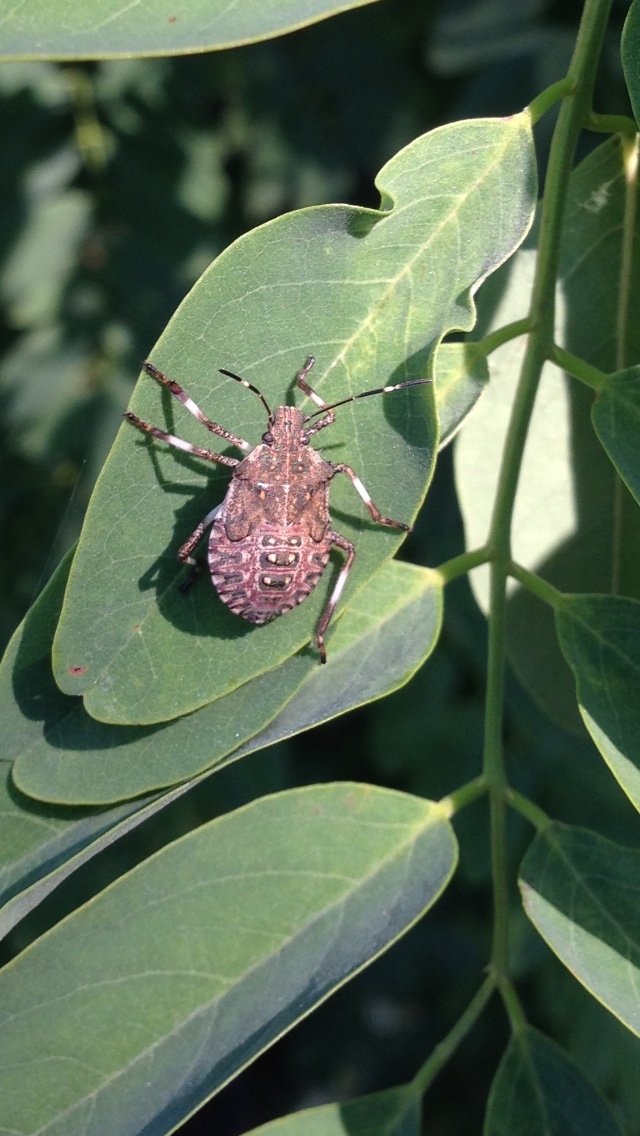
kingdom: Animalia
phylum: Arthropoda
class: Insecta
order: Hemiptera
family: Pentatomidae
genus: Halyomorpha
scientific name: Halyomorpha halys
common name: Brown marmorated stink bug
